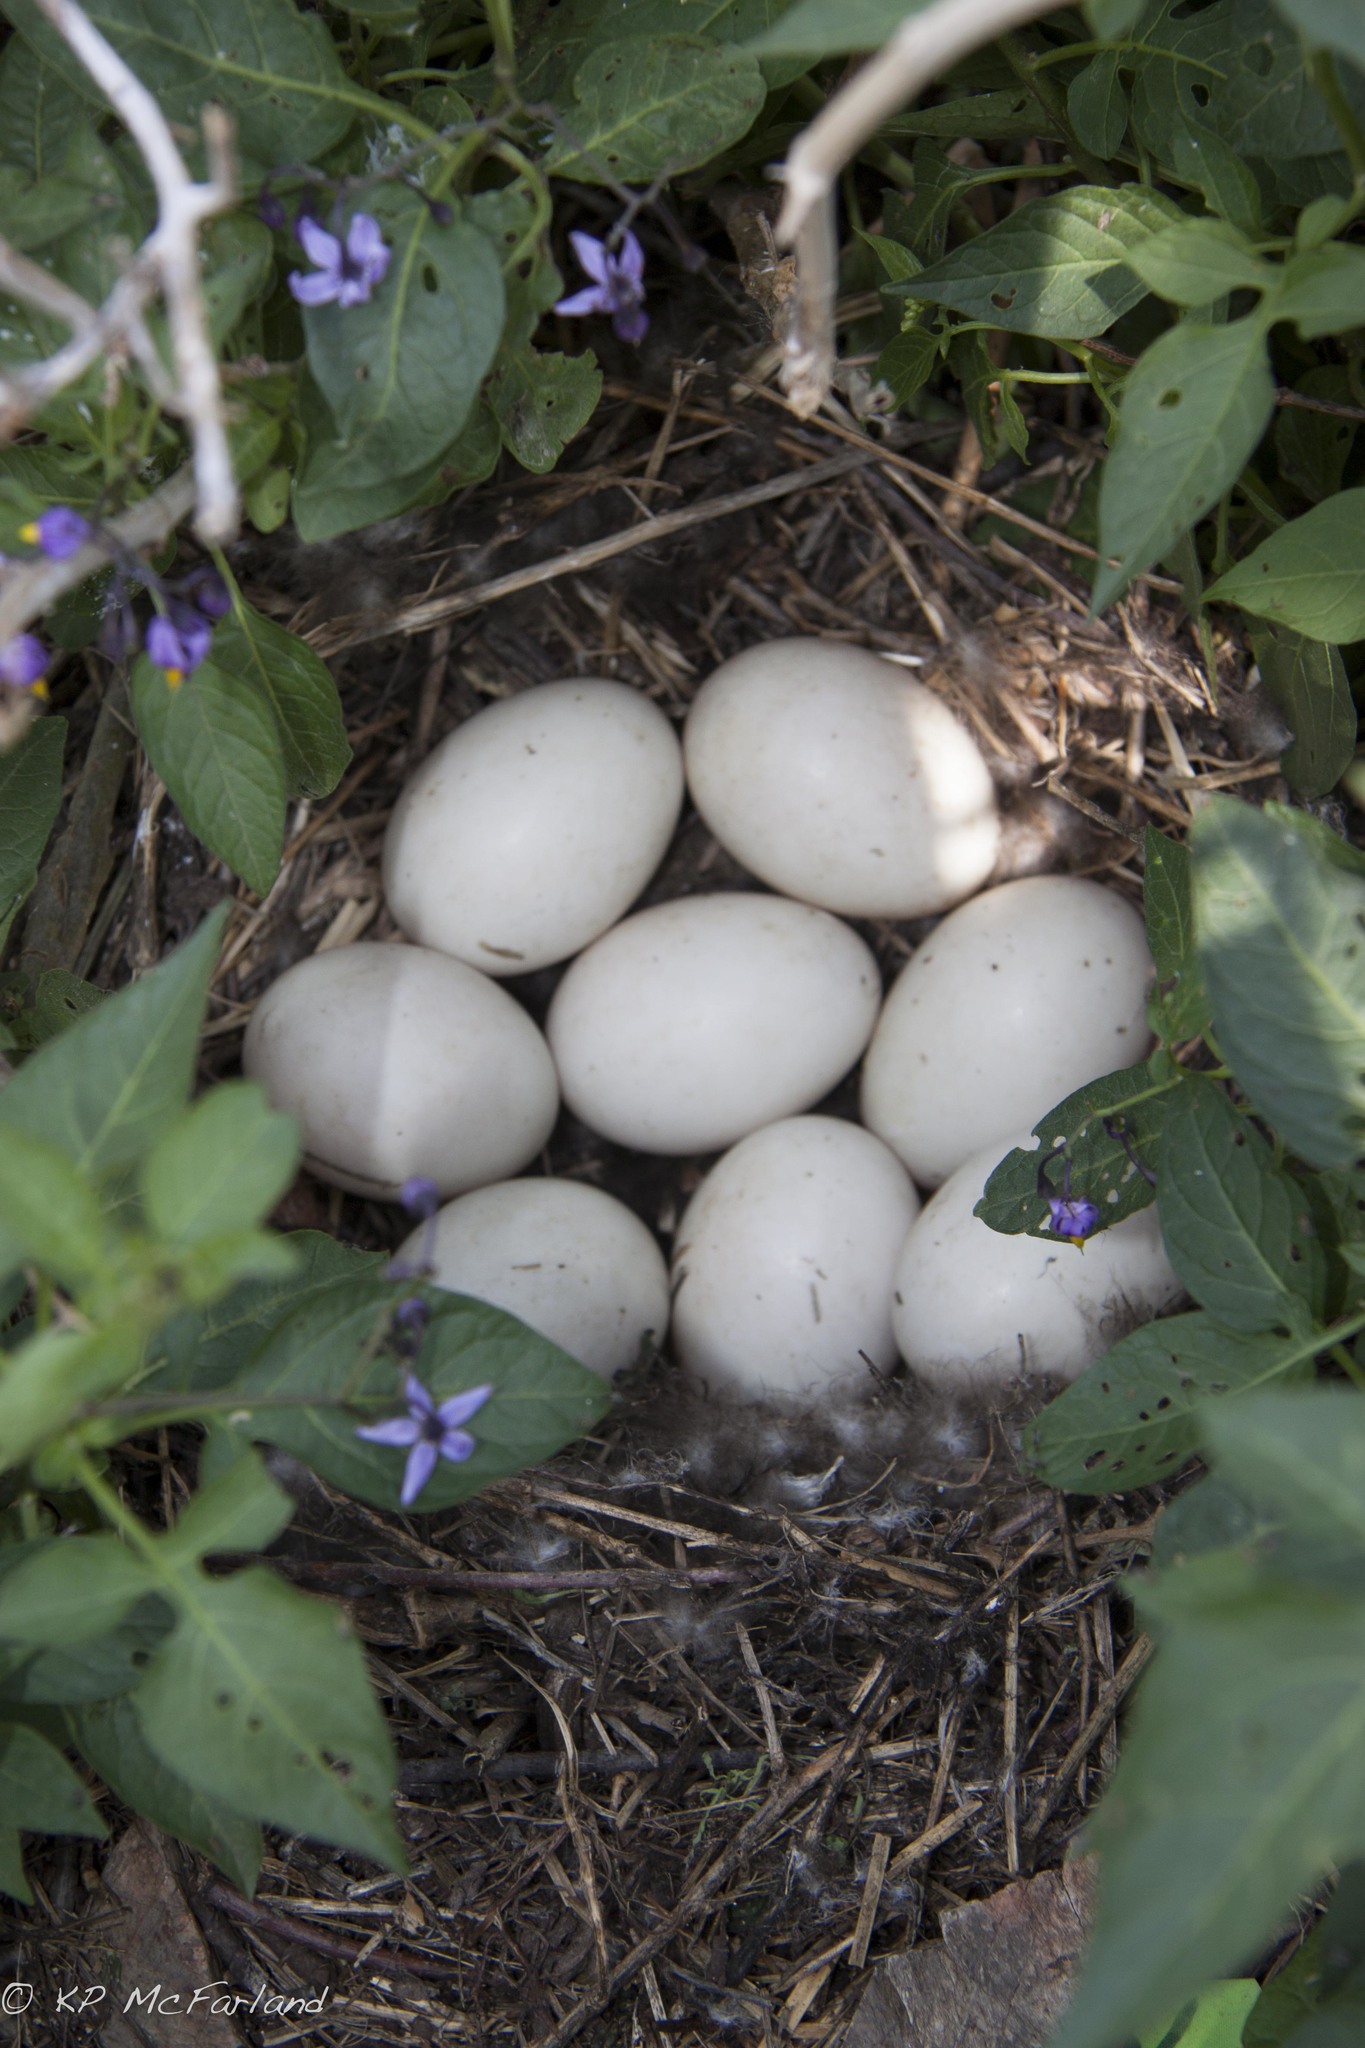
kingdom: Animalia
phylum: Chordata
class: Aves
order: Anseriformes
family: Anatidae
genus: Anas
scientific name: Anas platyrhynchos
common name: Mallard
